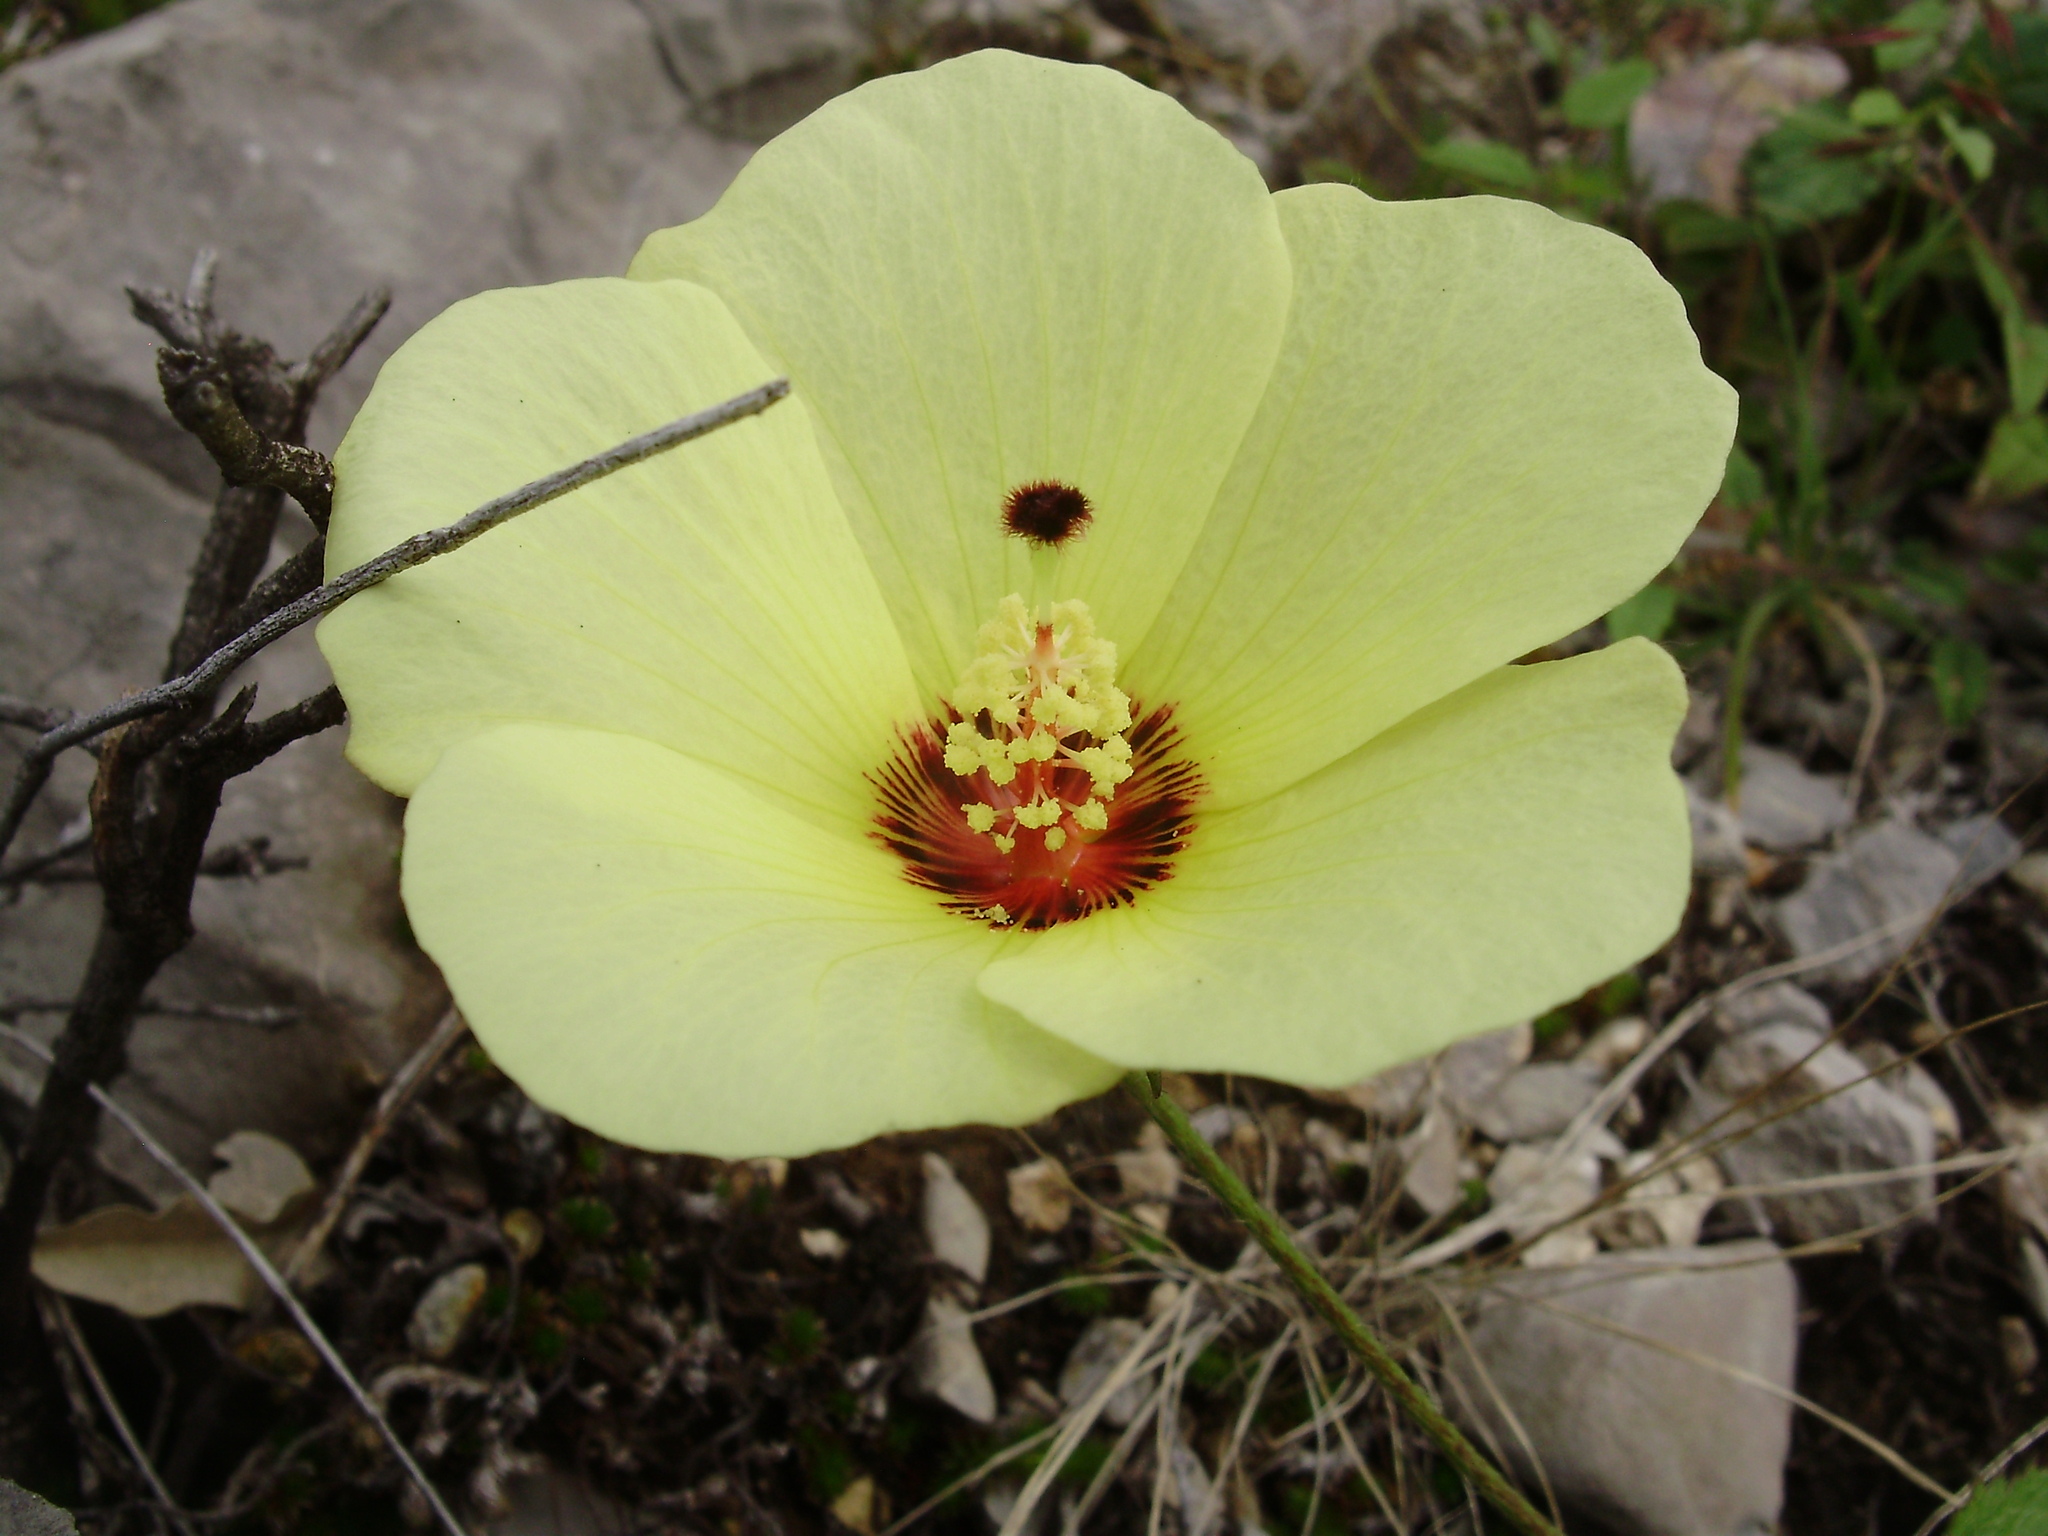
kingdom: Plantae
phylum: Tracheophyta
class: Magnoliopsida
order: Malvales
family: Malvaceae
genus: Hibiscus
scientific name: Hibiscus coulteri
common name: Desert rose-mallow
